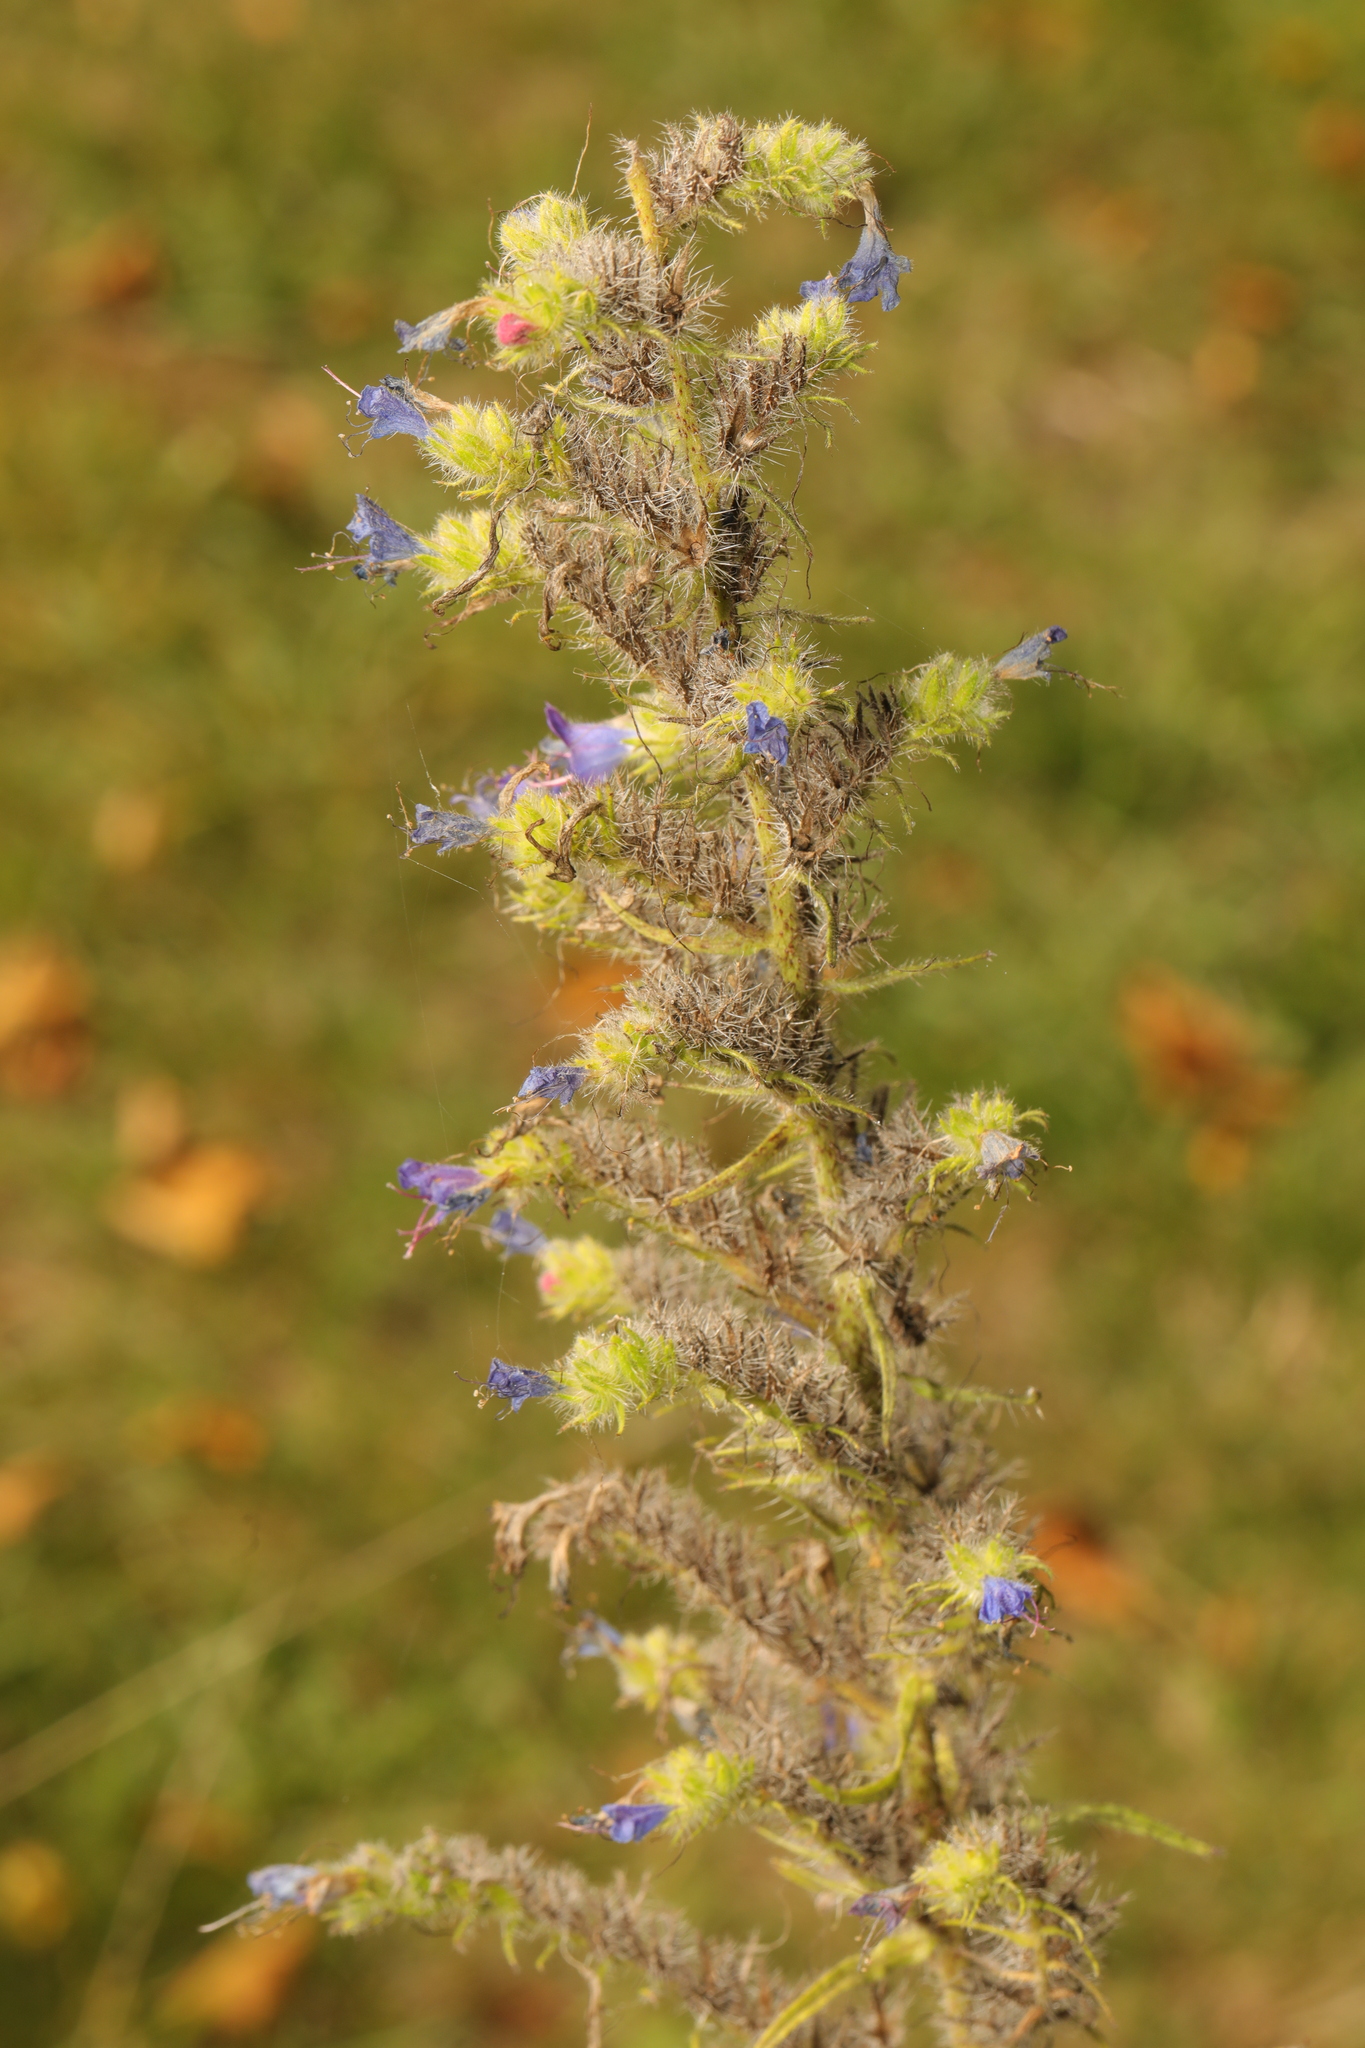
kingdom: Plantae
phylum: Tracheophyta
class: Magnoliopsida
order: Boraginales
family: Boraginaceae
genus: Echium
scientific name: Echium vulgare
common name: Common viper's bugloss
